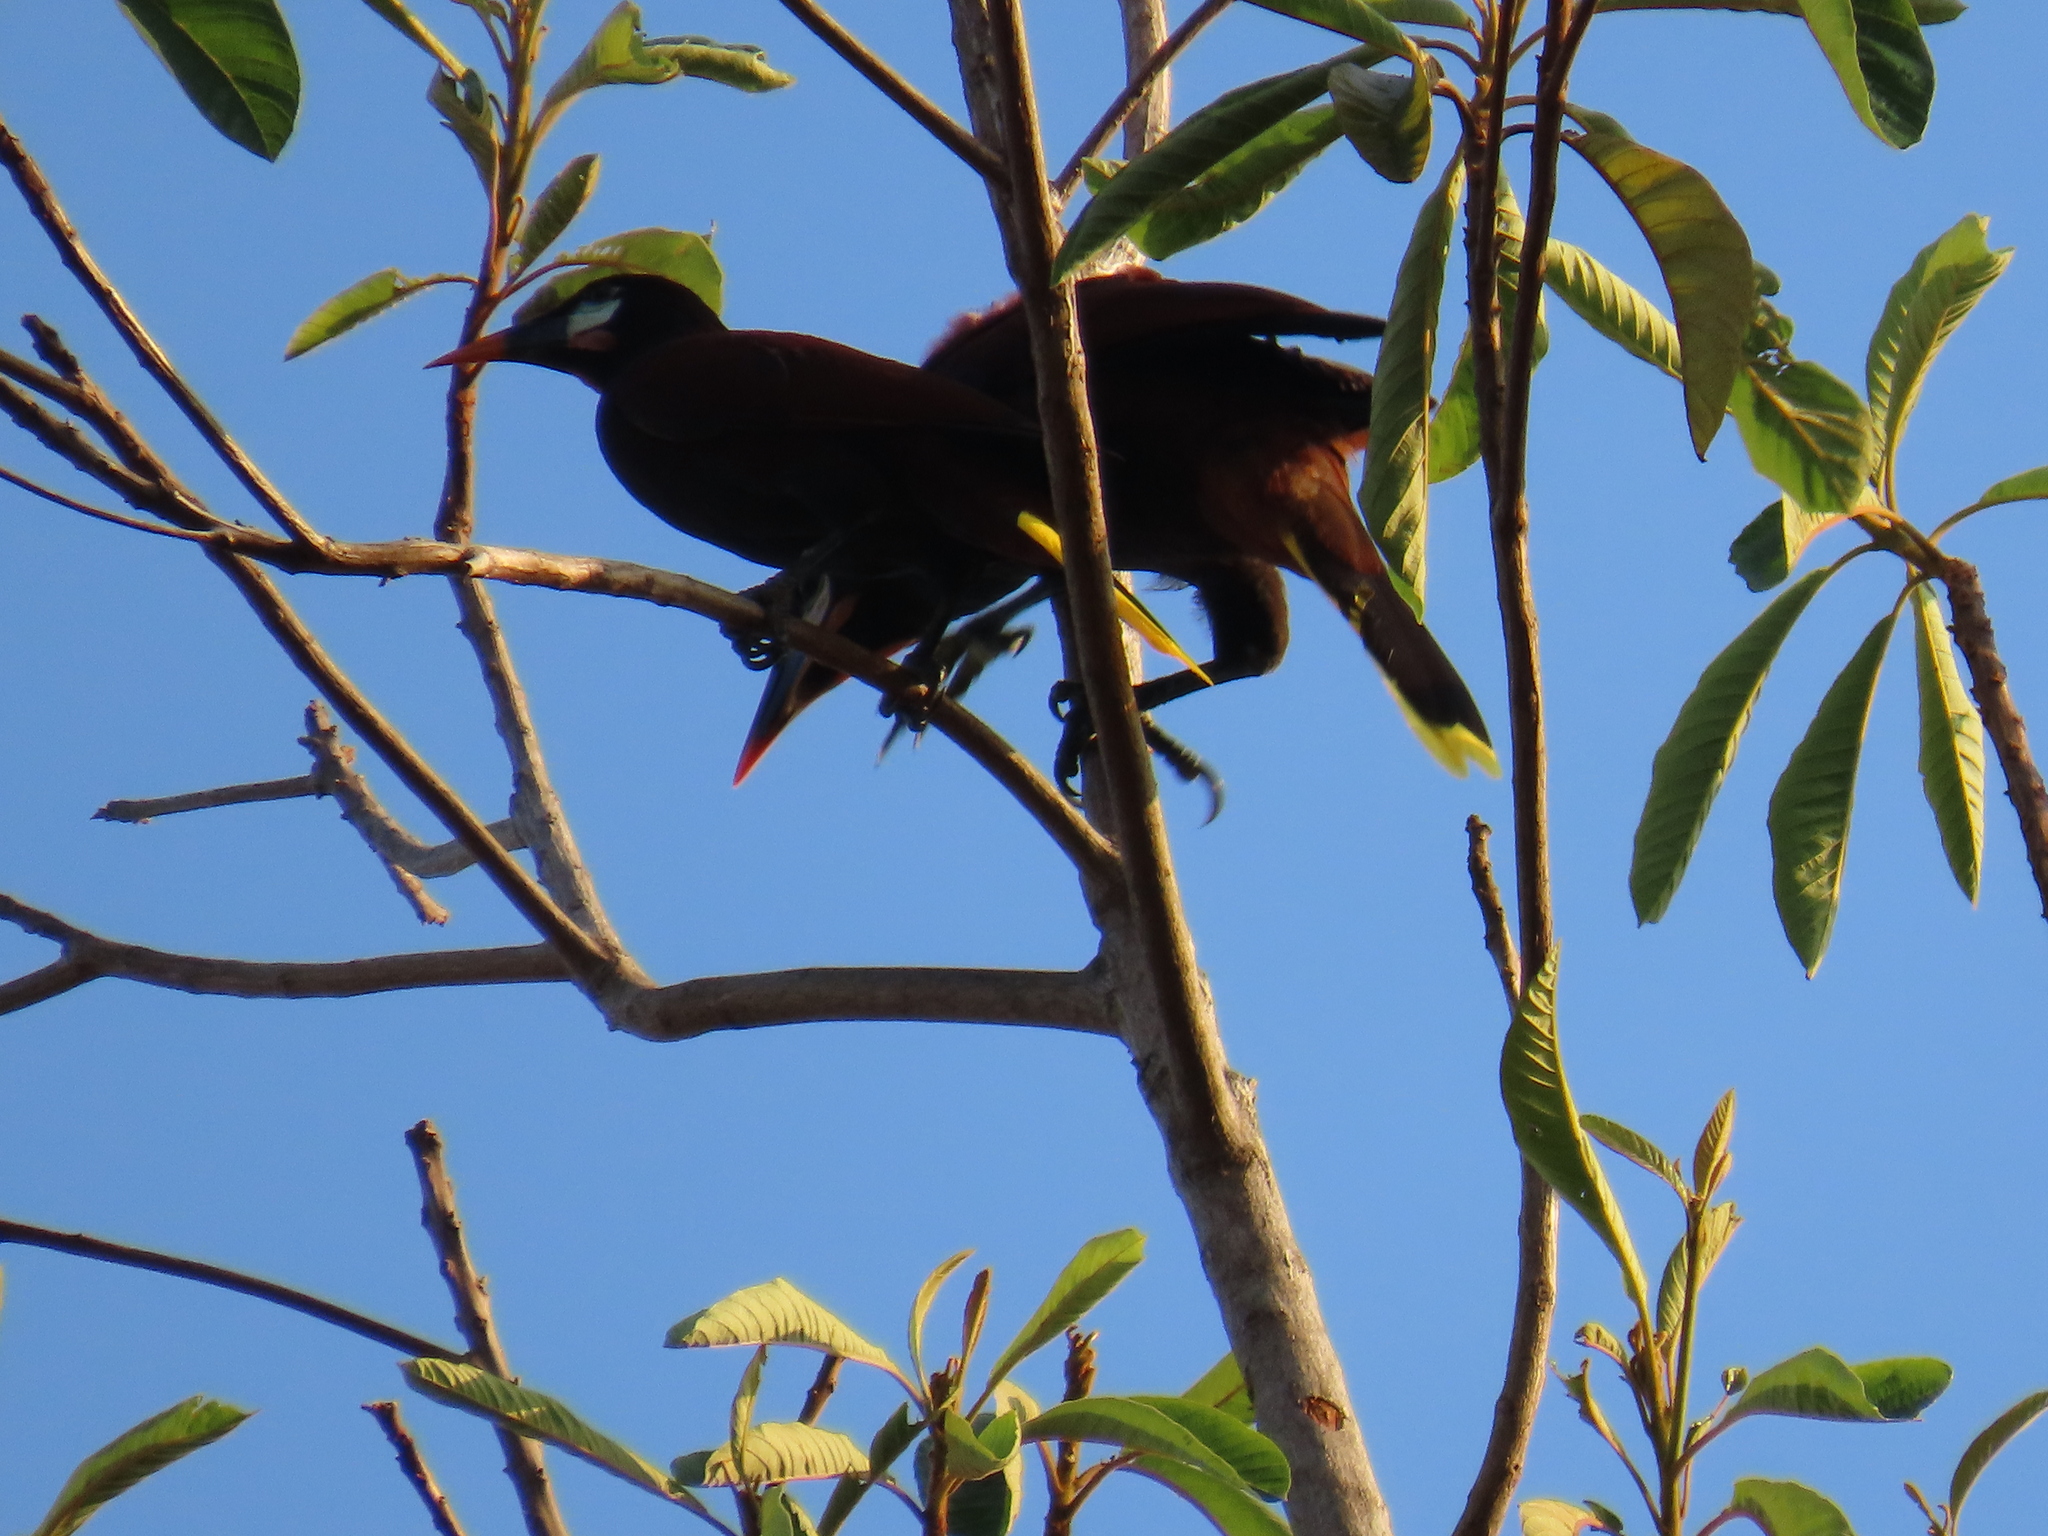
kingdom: Animalia
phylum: Chordata
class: Aves
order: Passeriformes
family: Icteridae
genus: Psarocolius
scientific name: Psarocolius montezuma
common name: Montezuma oropendola
